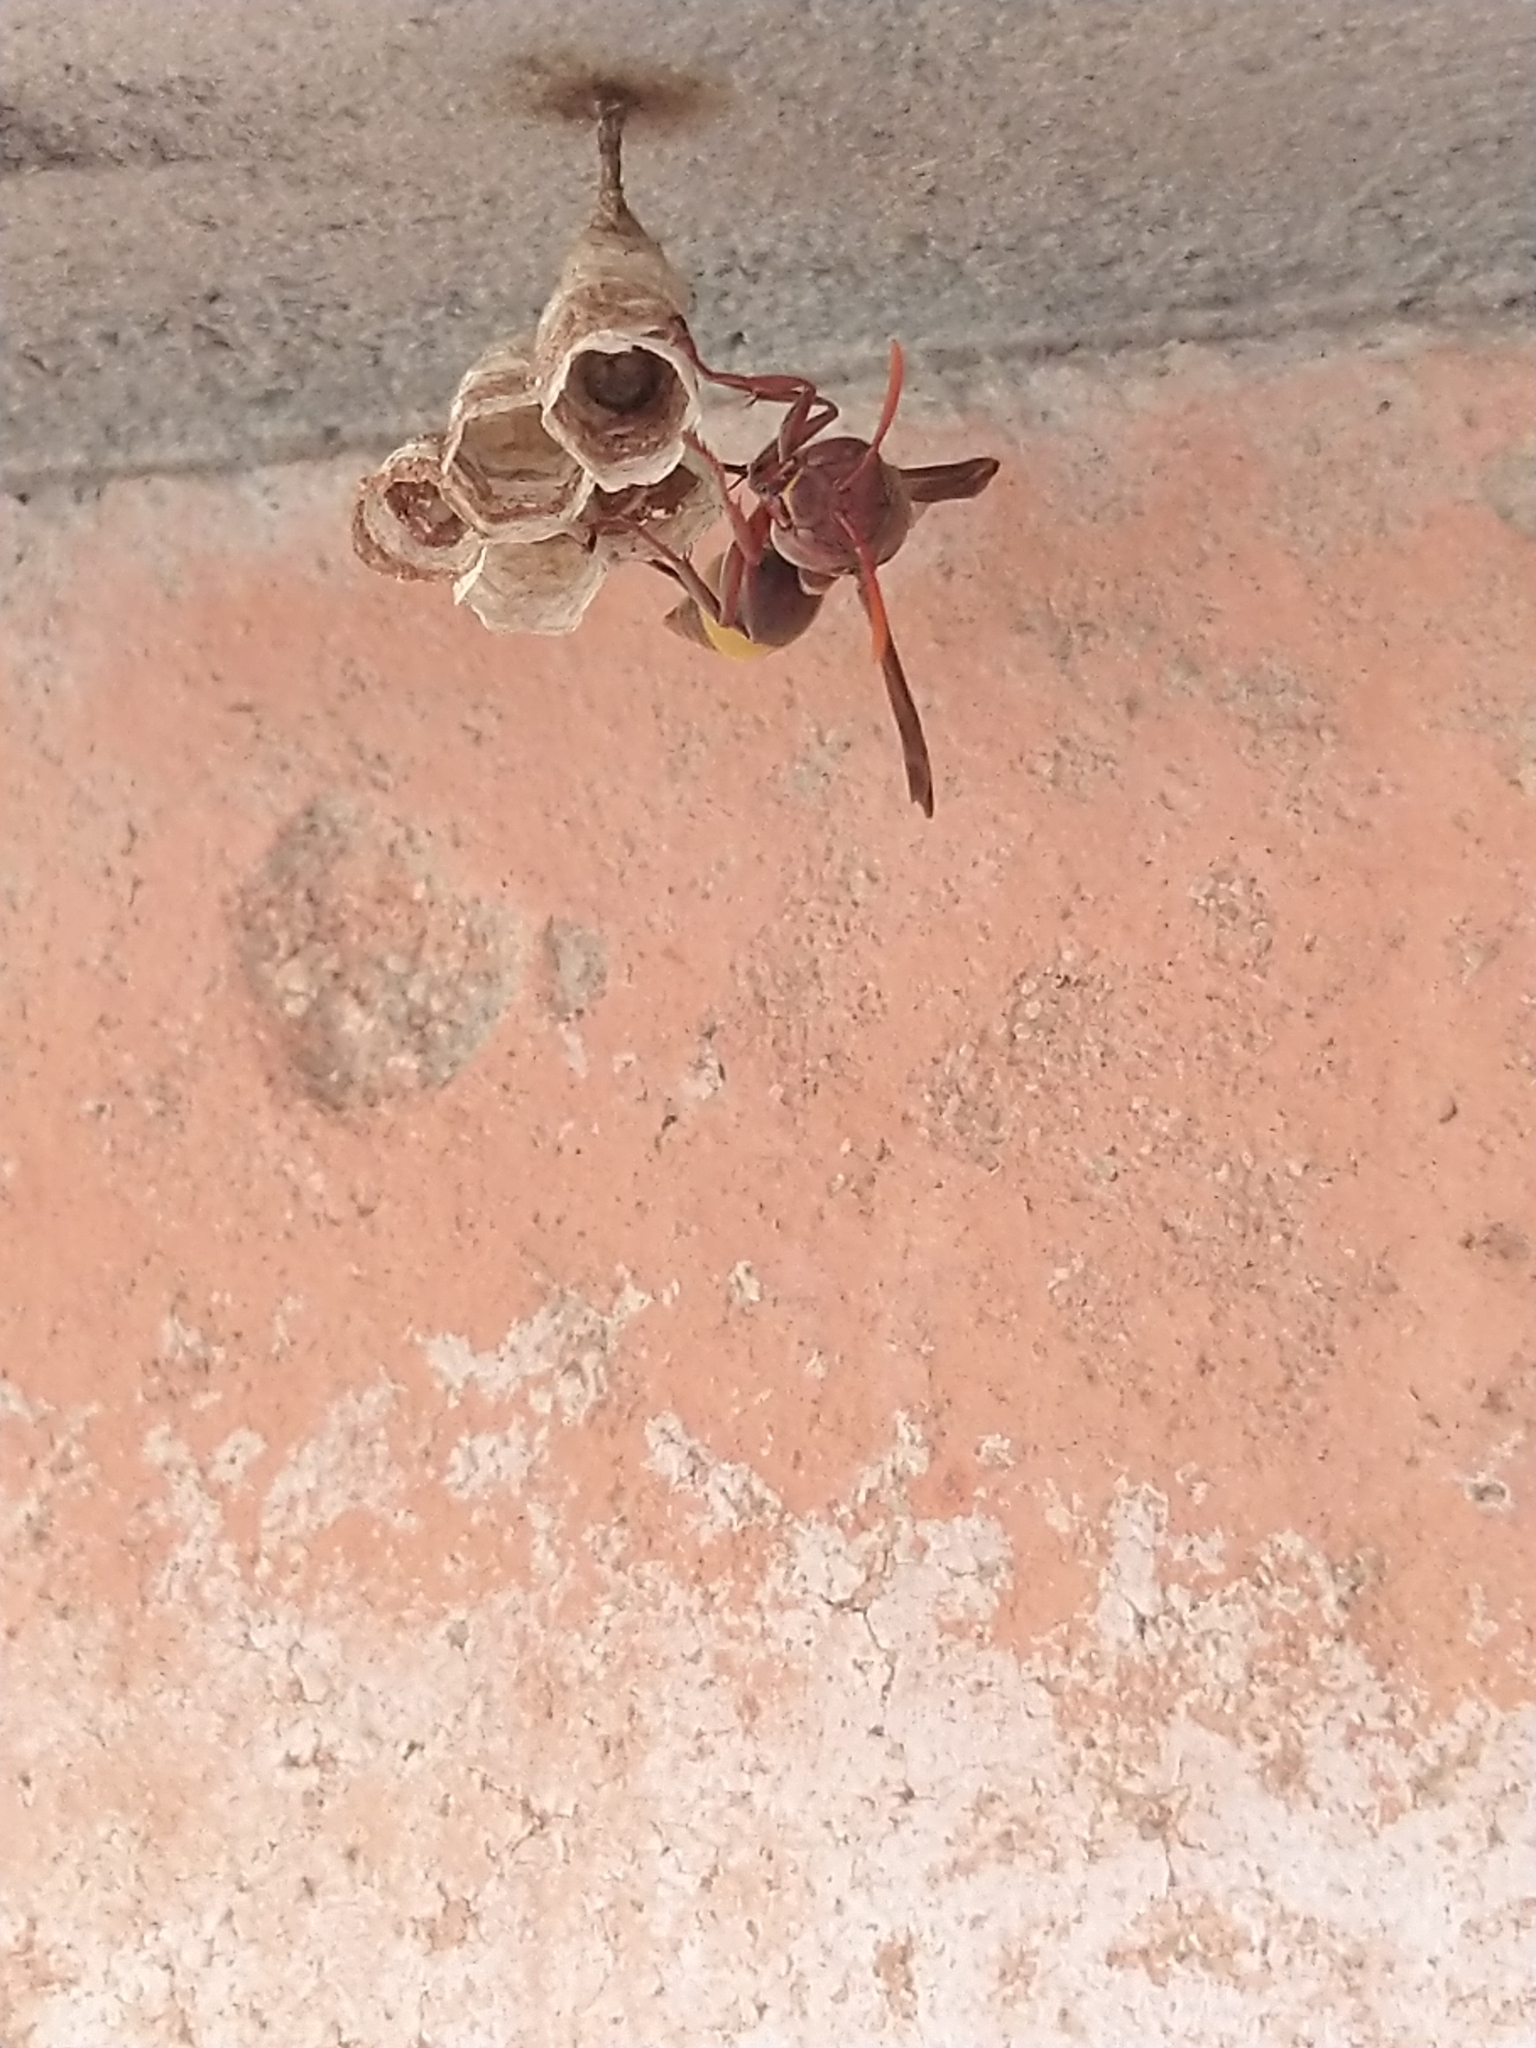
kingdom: Animalia
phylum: Arthropoda
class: Insecta
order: Hymenoptera
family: Vespidae
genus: Ropalidia
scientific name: Ropalidia
